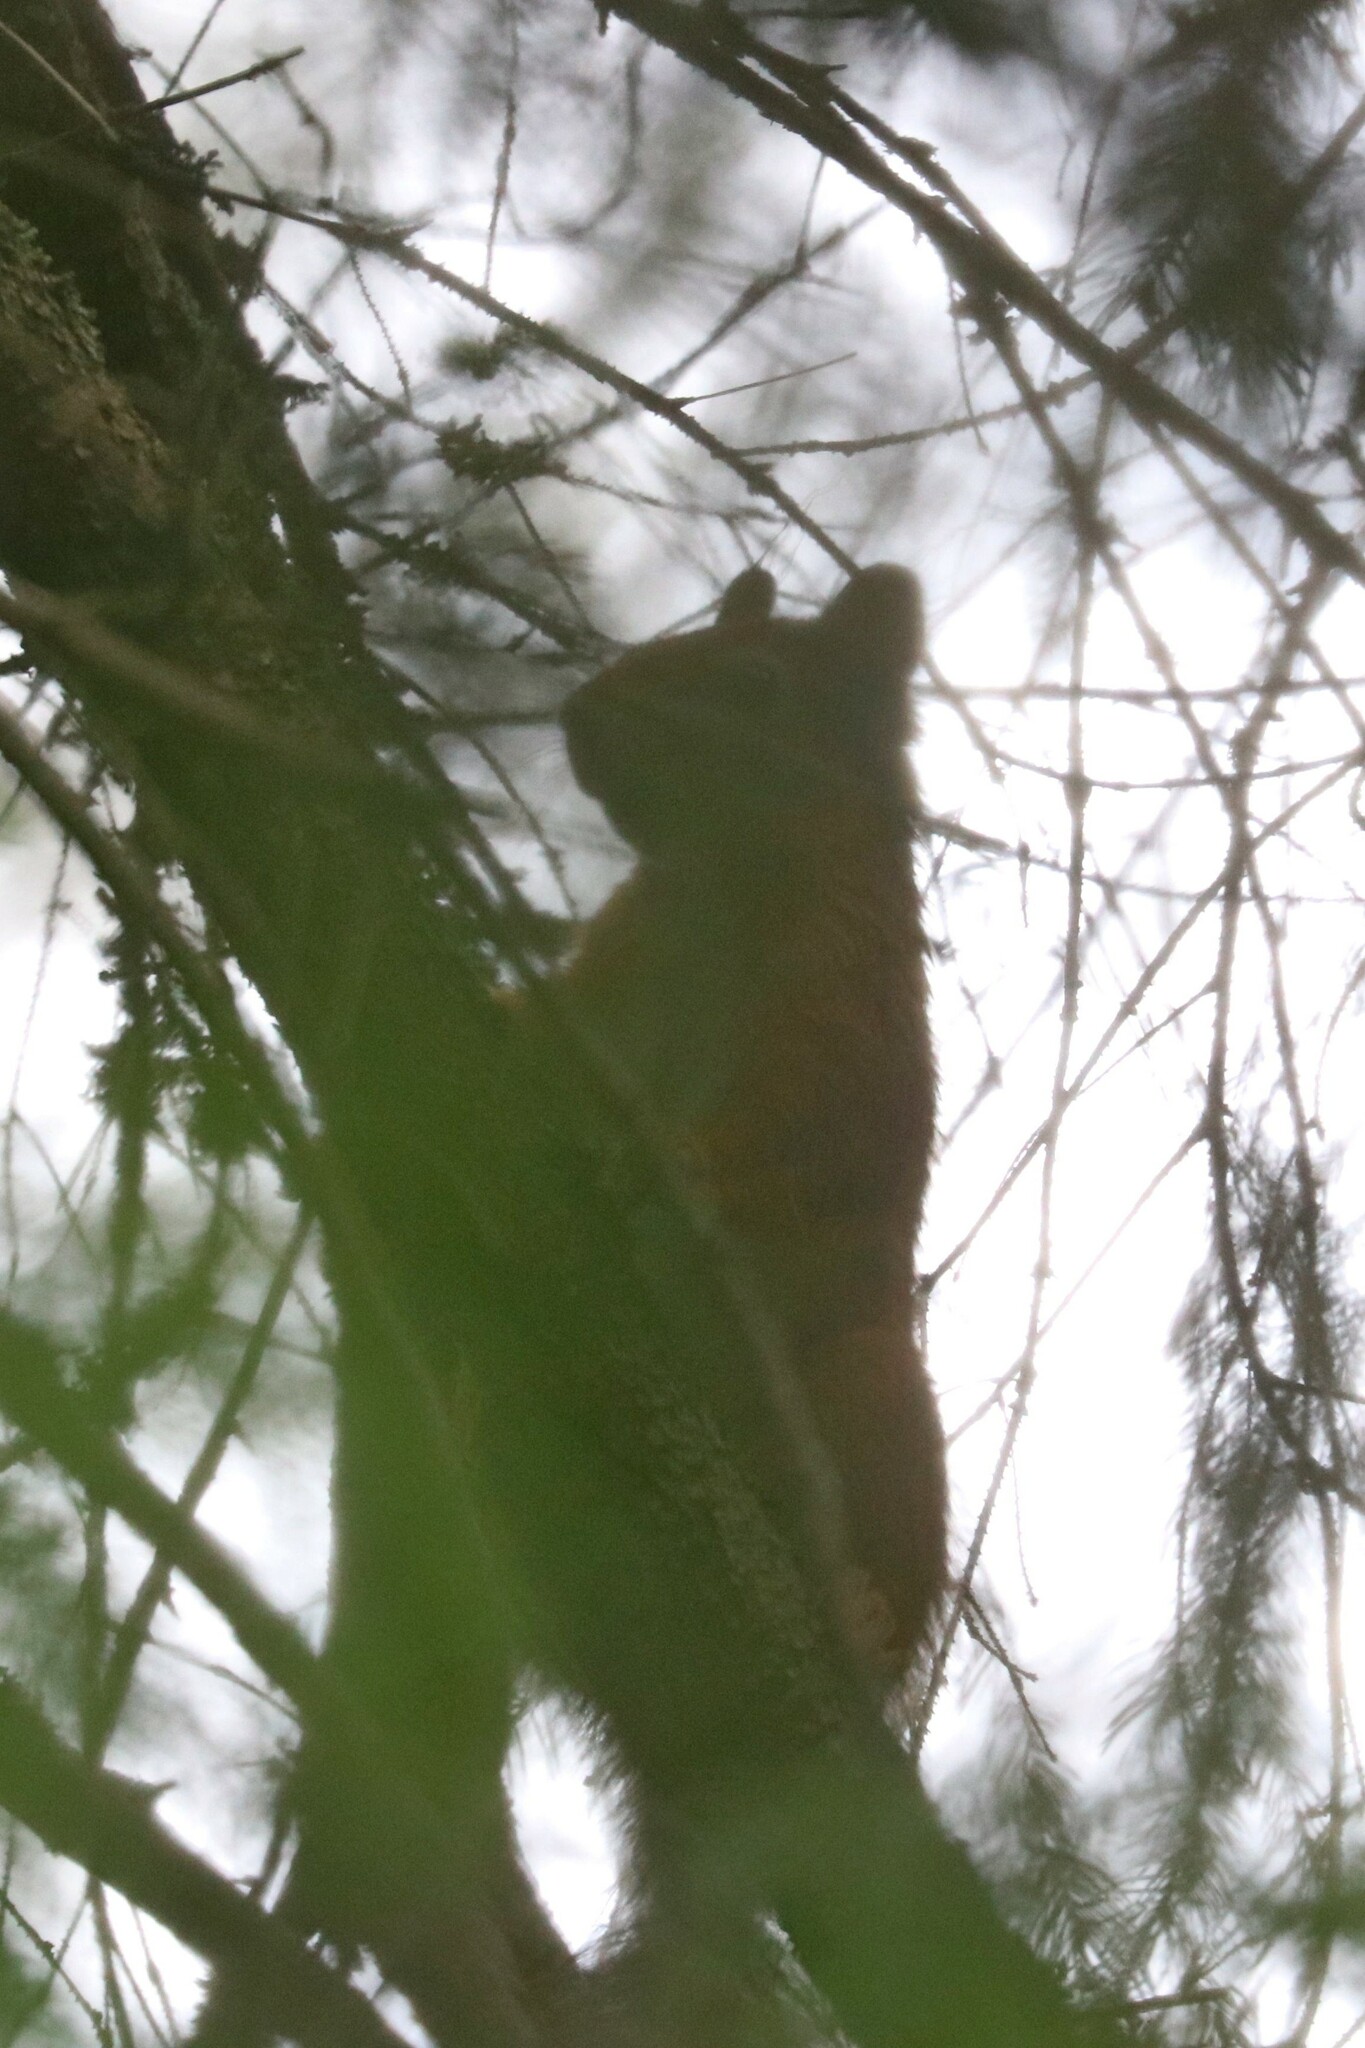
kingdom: Animalia
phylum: Chordata
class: Mammalia
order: Rodentia
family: Sciuridae
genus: Sciurus
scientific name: Sciurus vulgaris
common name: Eurasian red squirrel
